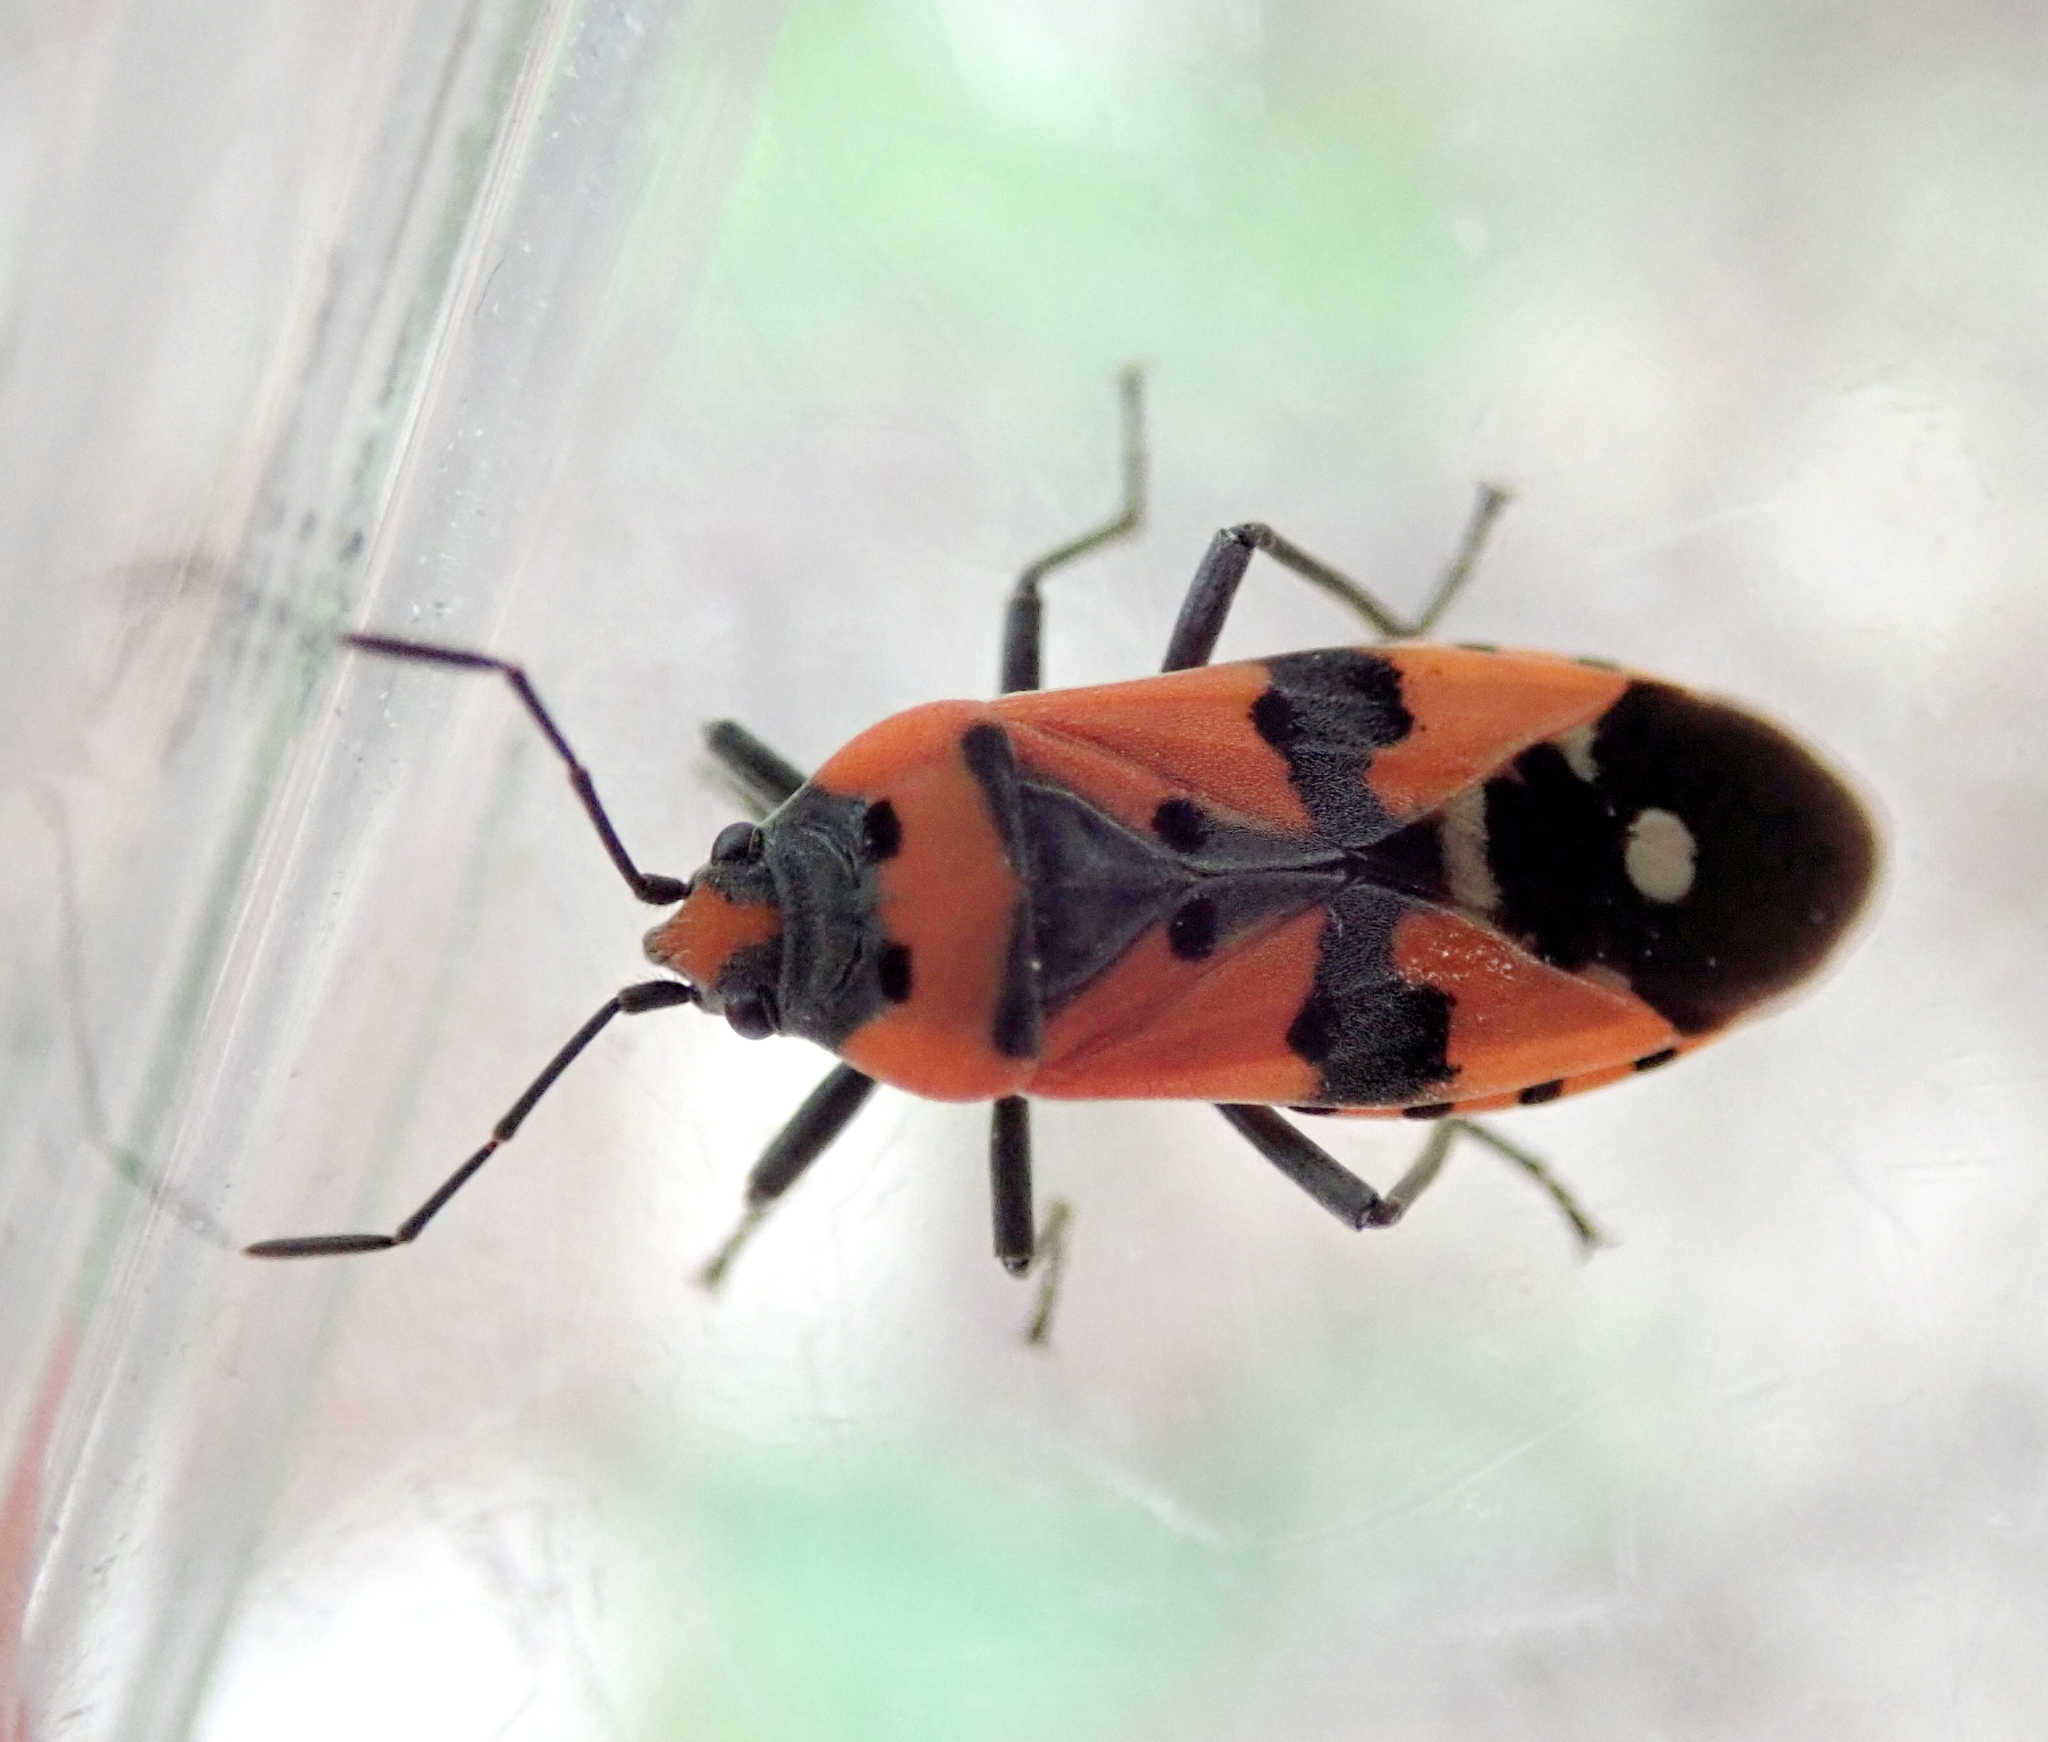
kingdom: Animalia
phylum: Arthropoda
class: Insecta
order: Hemiptera
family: Lygaeidae
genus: Lygaeus
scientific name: Lygaeus equestris
